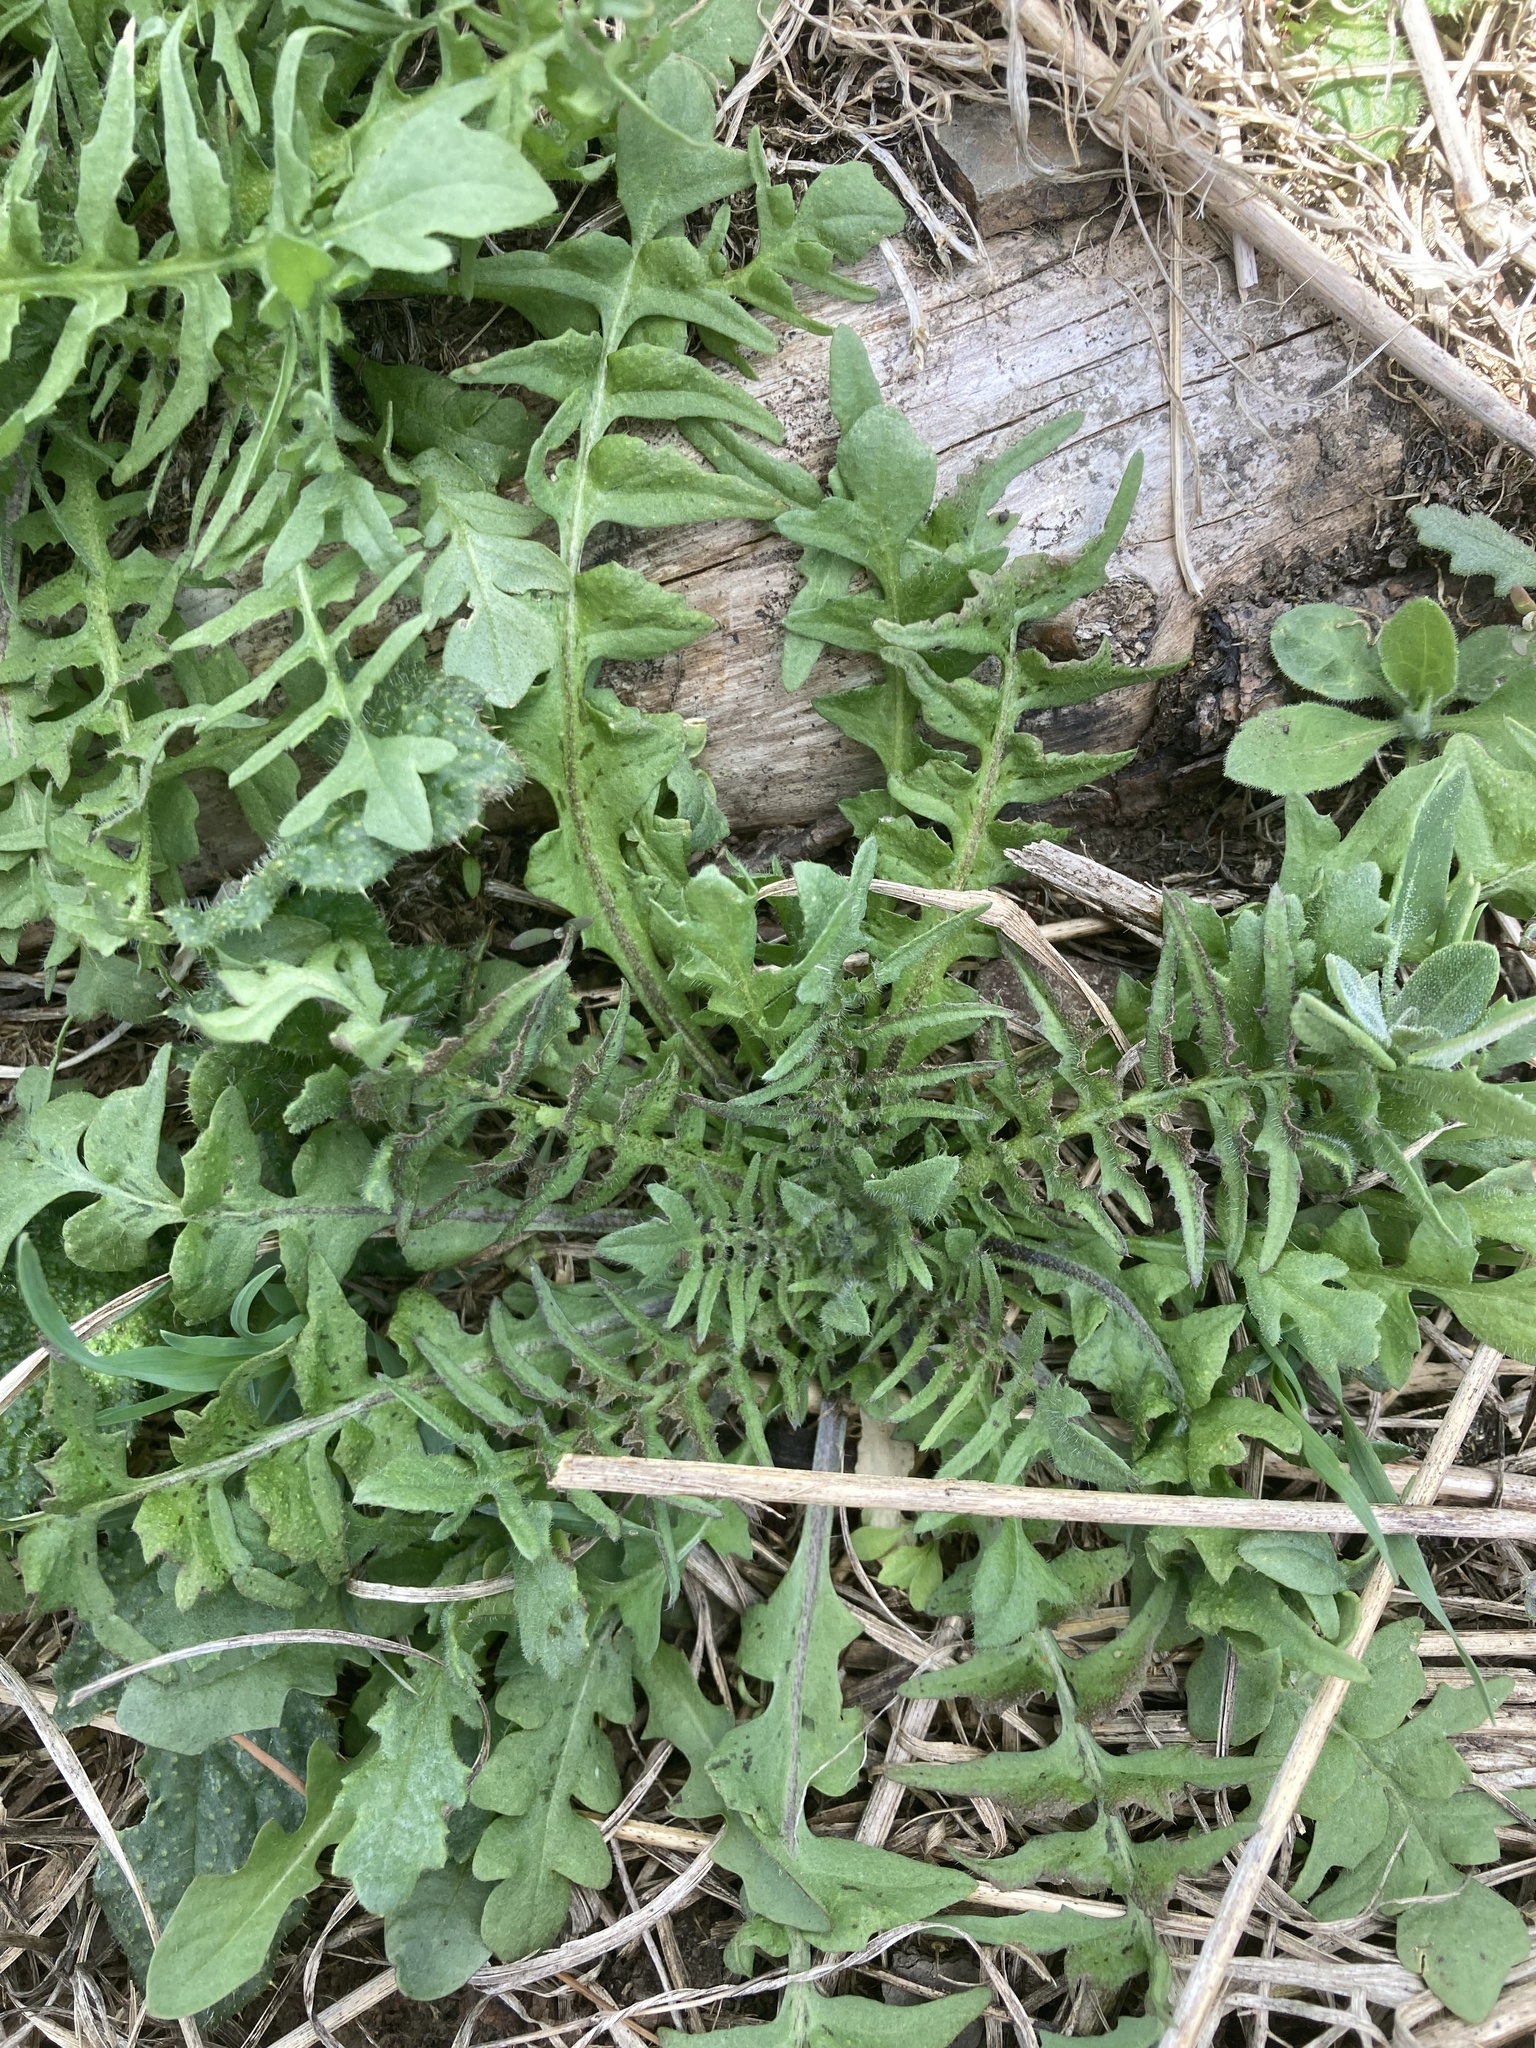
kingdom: Plantae
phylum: Tracheophyta
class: Magnoliopsida
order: Brassicales
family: Brassicaceae
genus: Capsella
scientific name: Capsella bursa-pastoris
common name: Shepherd's purse
